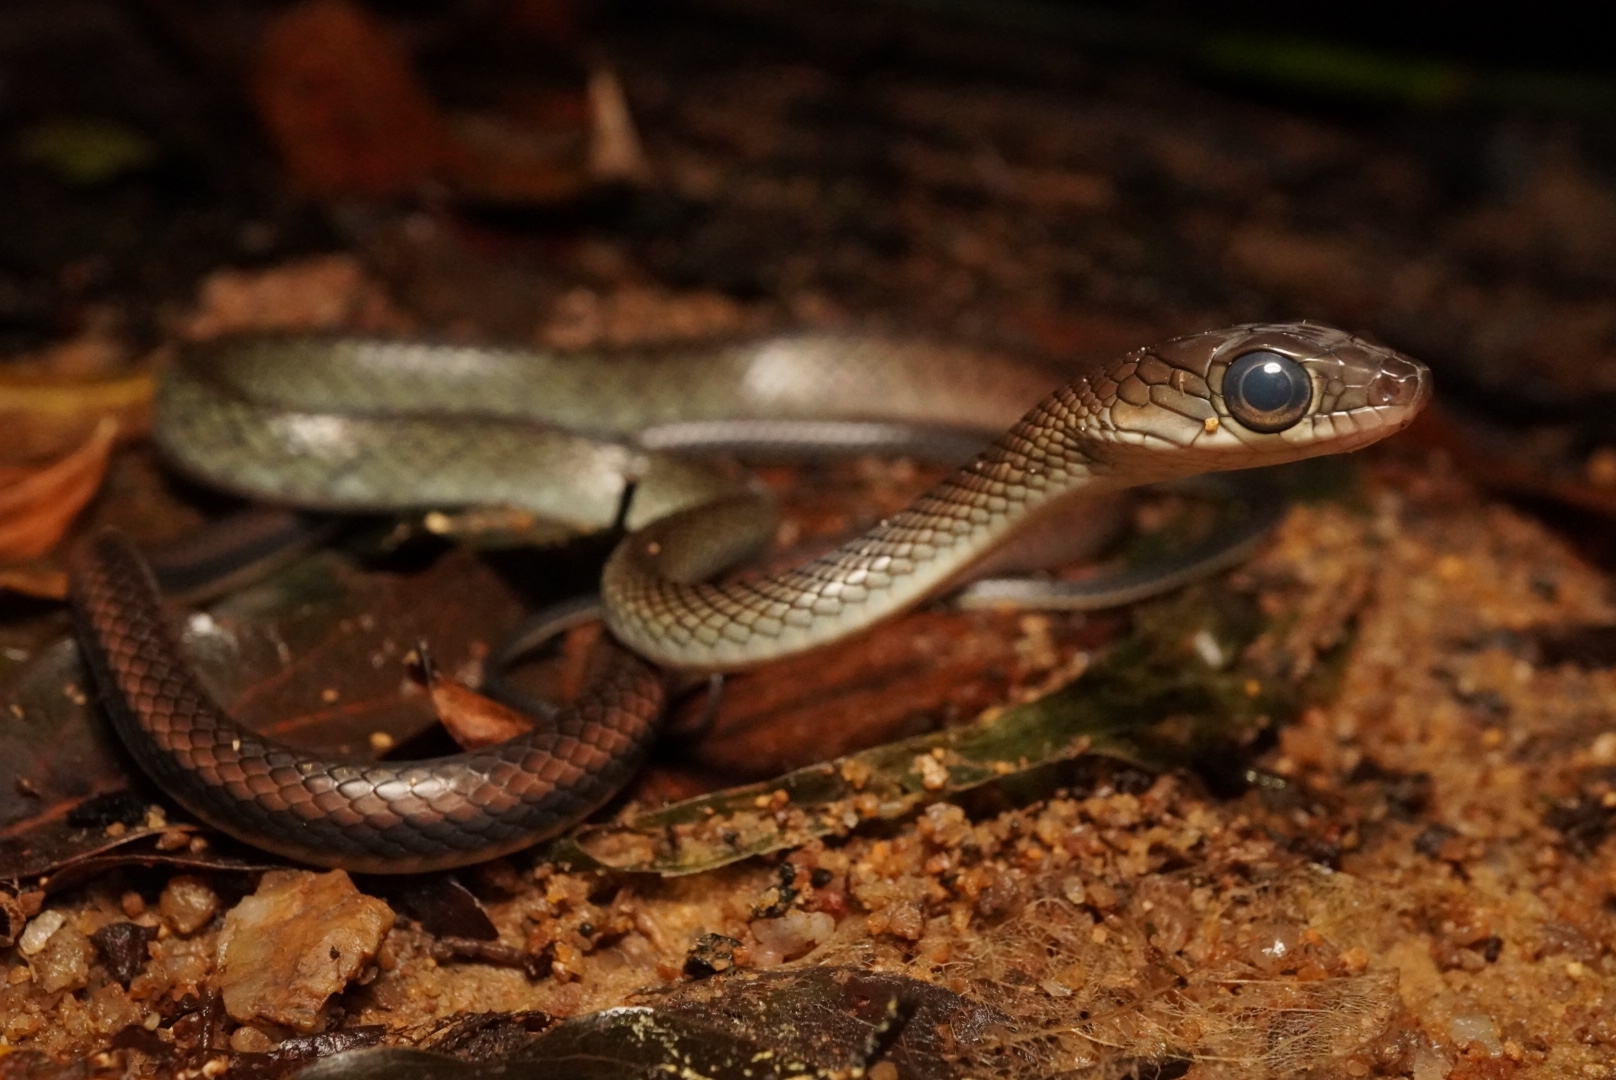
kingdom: Animalia
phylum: Chordata
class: Squamata
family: Colubridae
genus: Ptyas
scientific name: Ptyas fusca
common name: White-bellied rat snake
